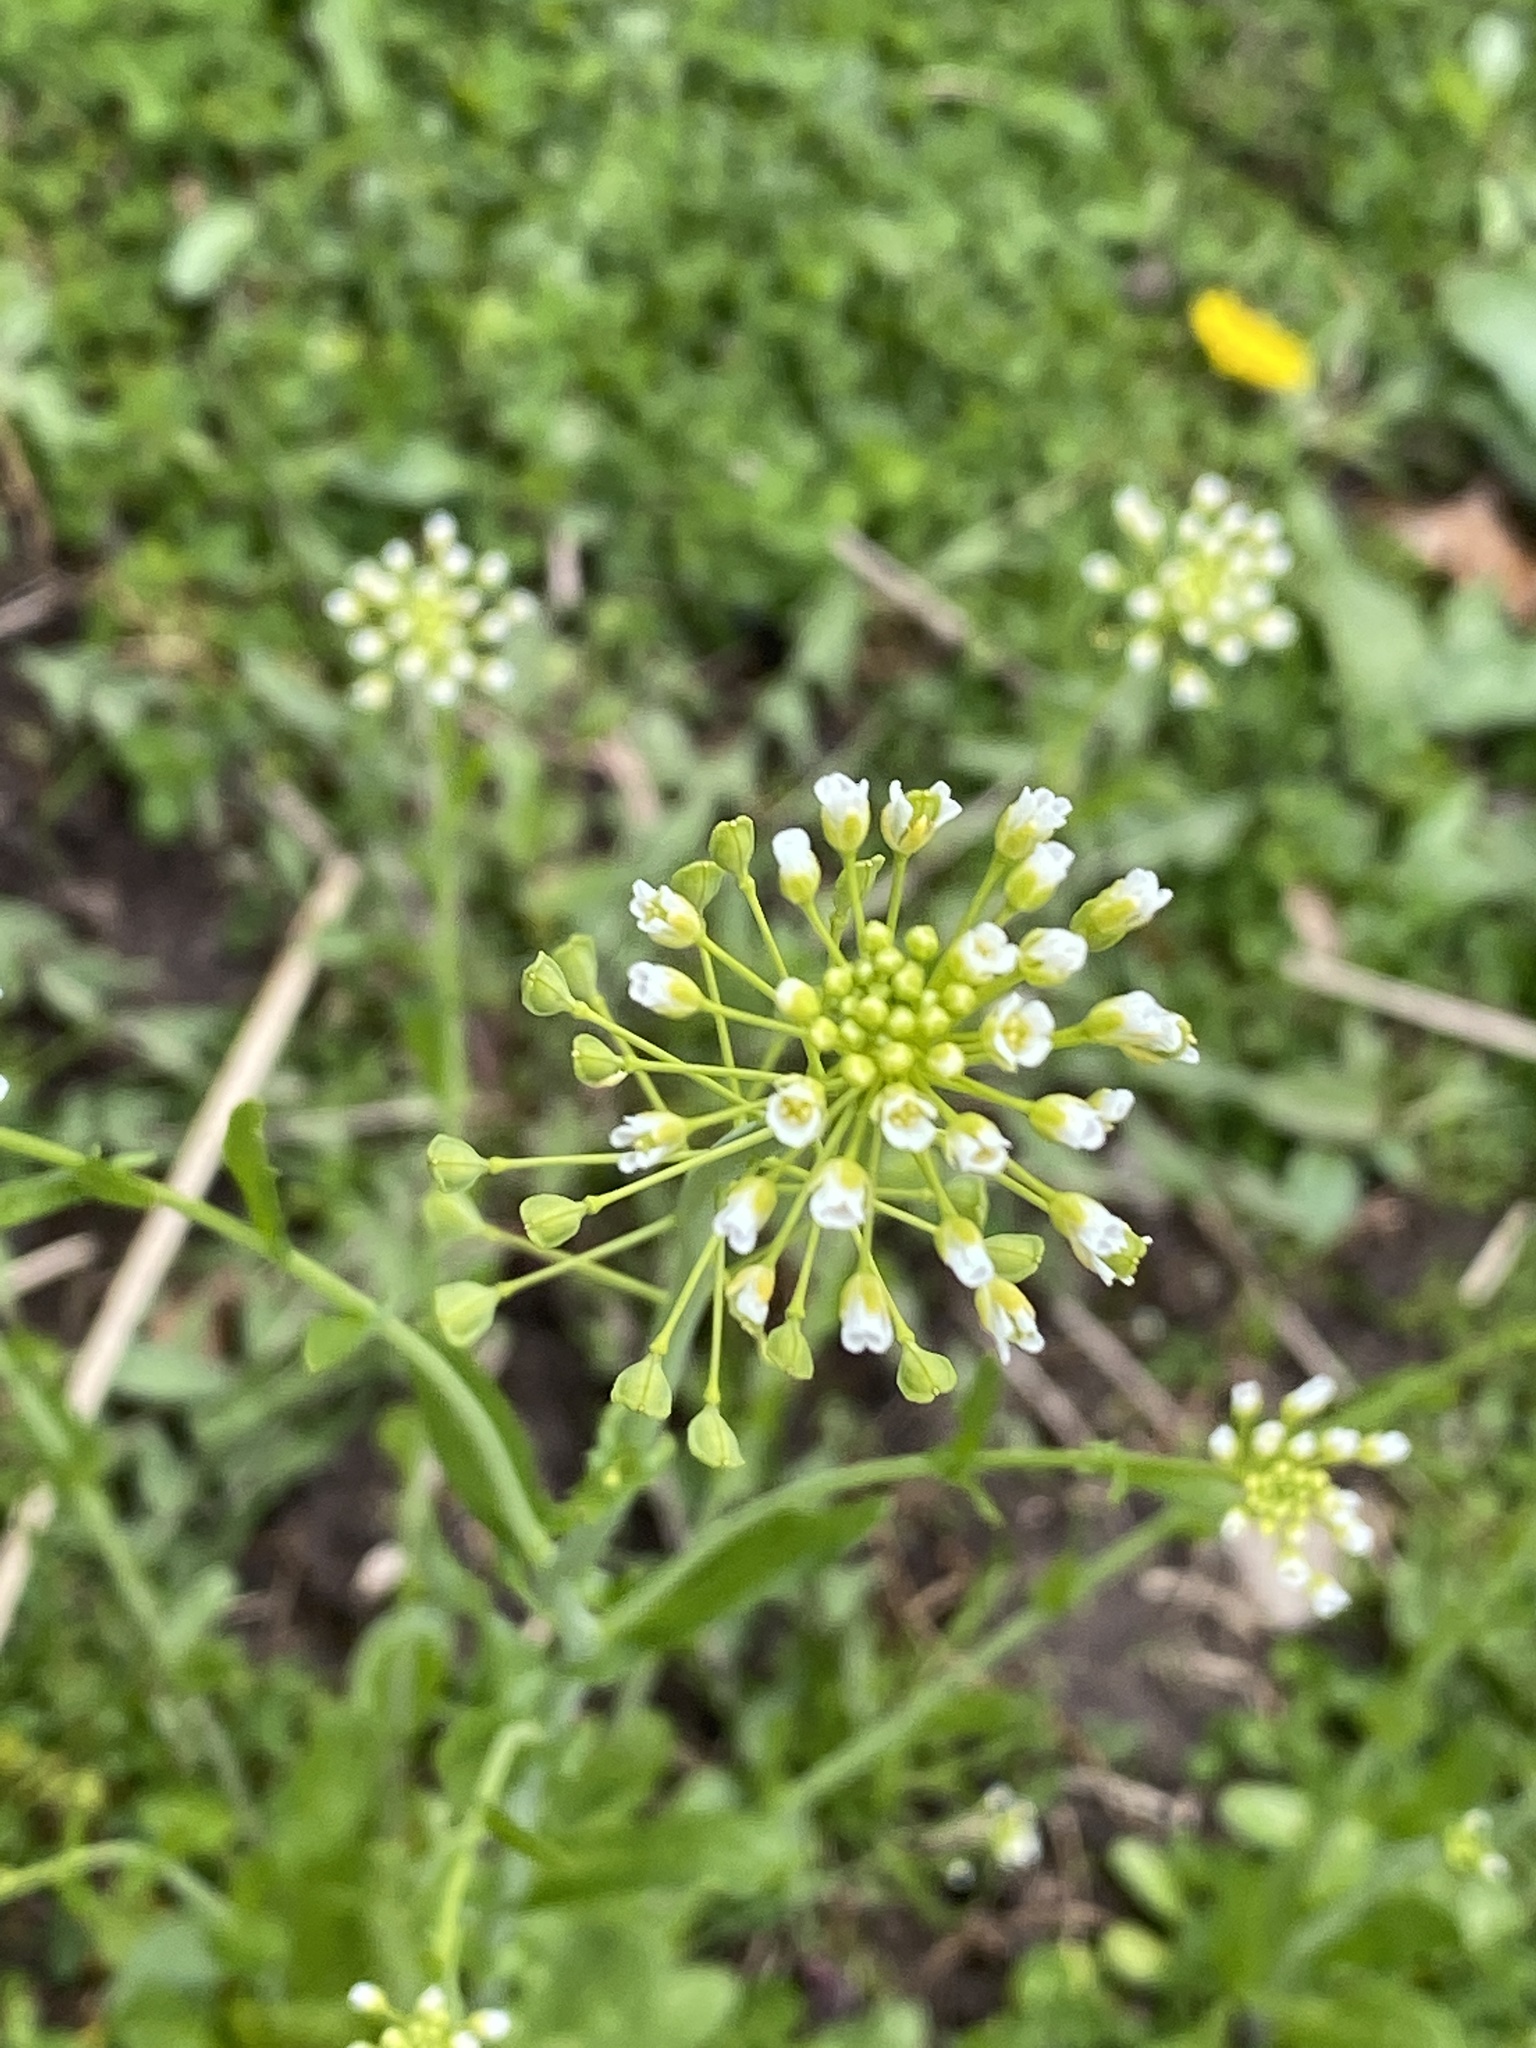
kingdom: Plantae
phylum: Tracheophyta
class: Magnoliopsida
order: Brassicales
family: Brassicaceae
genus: Mummenhoffia
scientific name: Mummenhoffia alliacea
